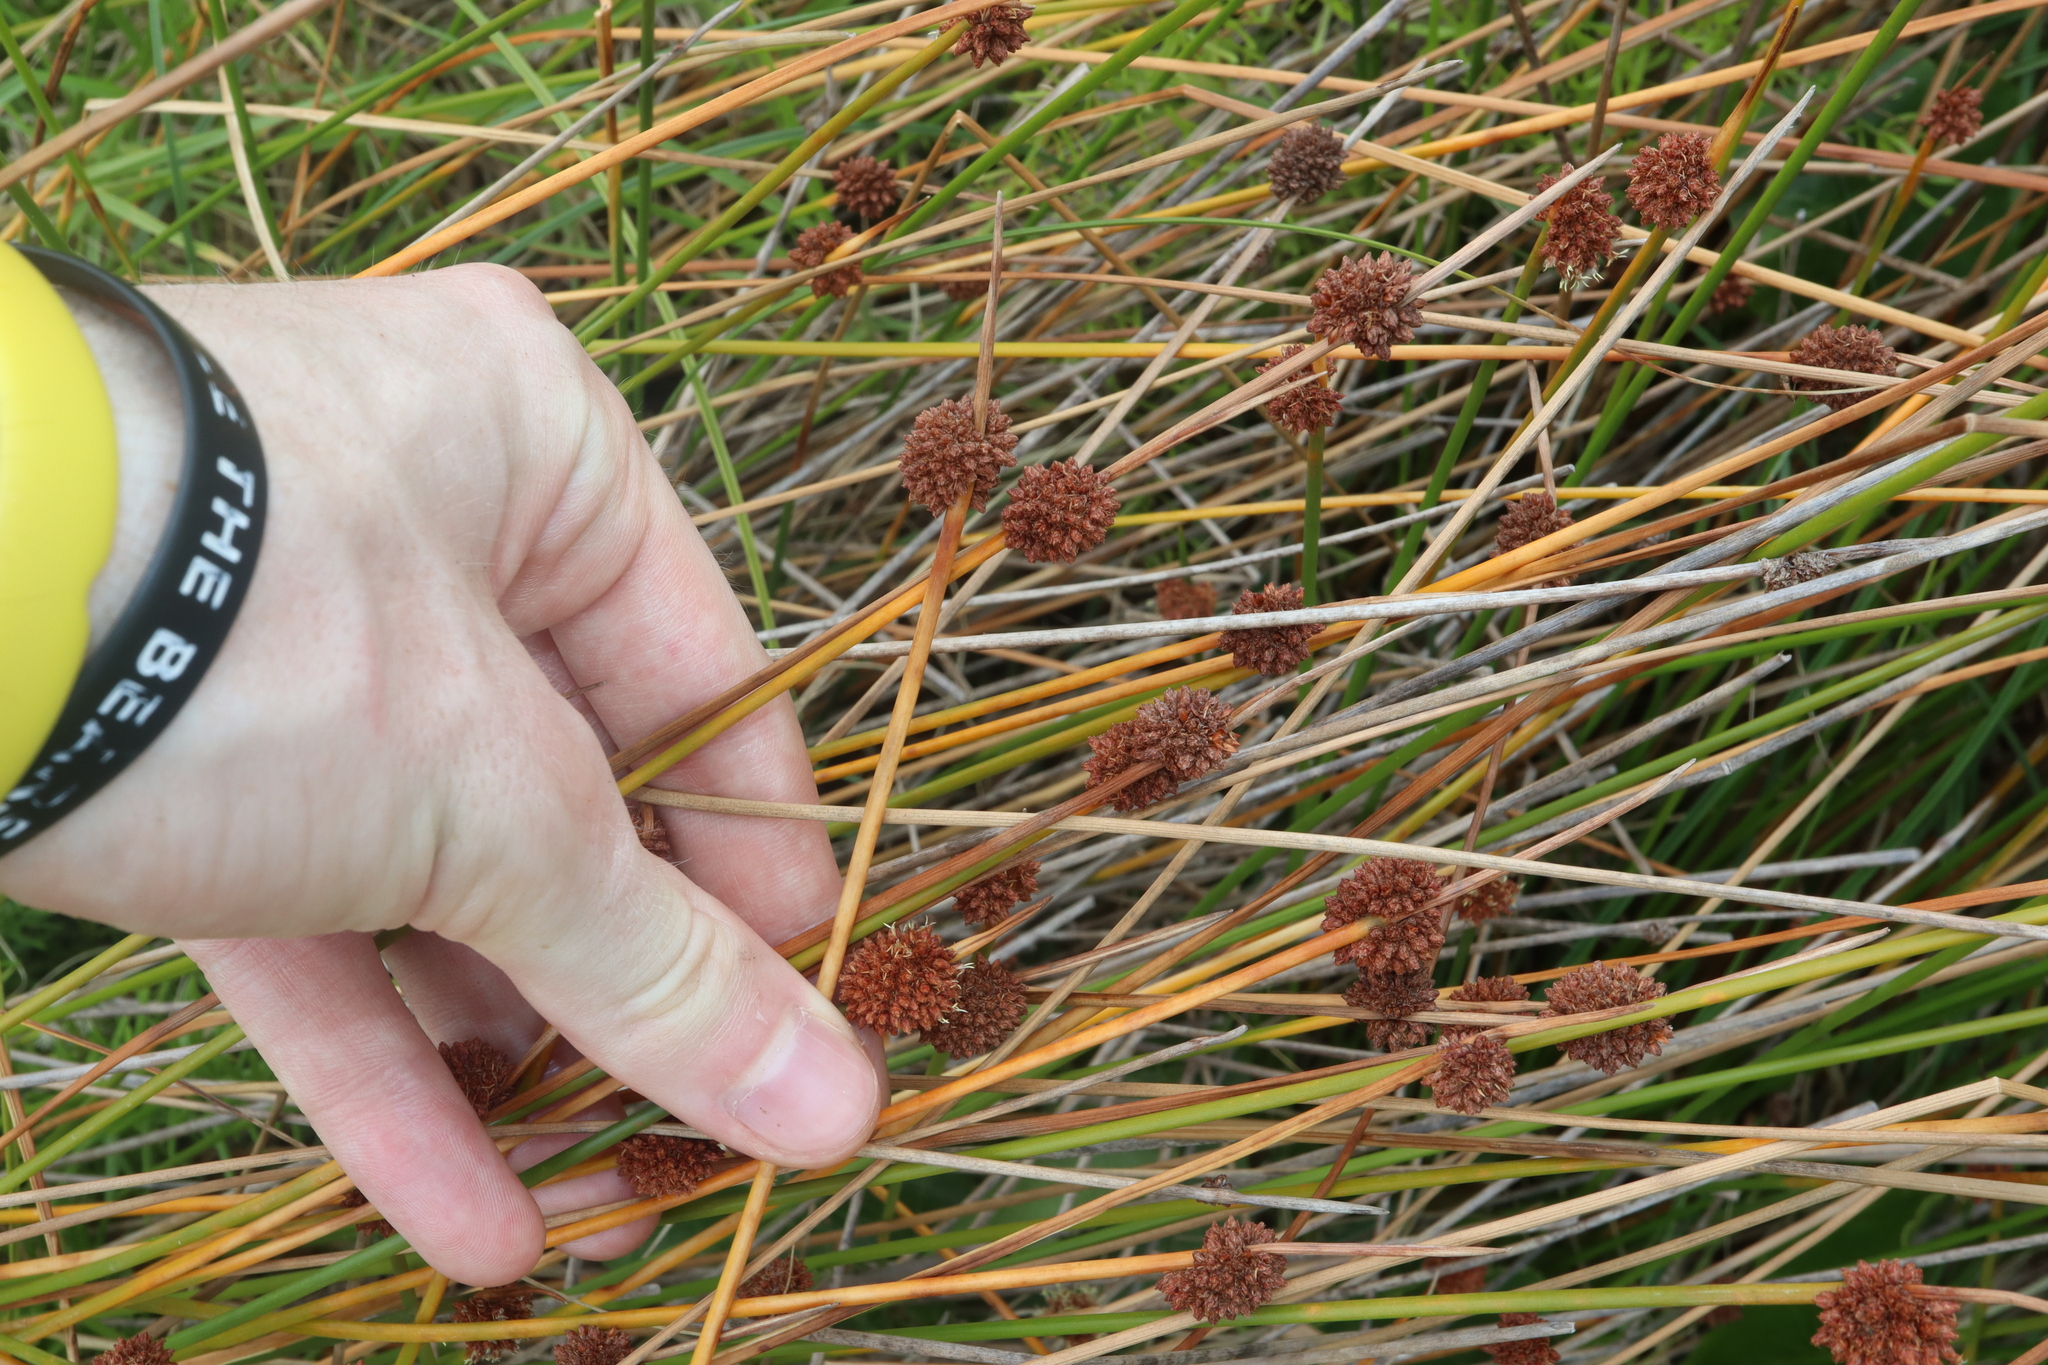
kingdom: Plantae
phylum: Tracheophyta
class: Liliopsida
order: Poales
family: Cyperaceae
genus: Ficinia
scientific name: Ficinia nodosa
